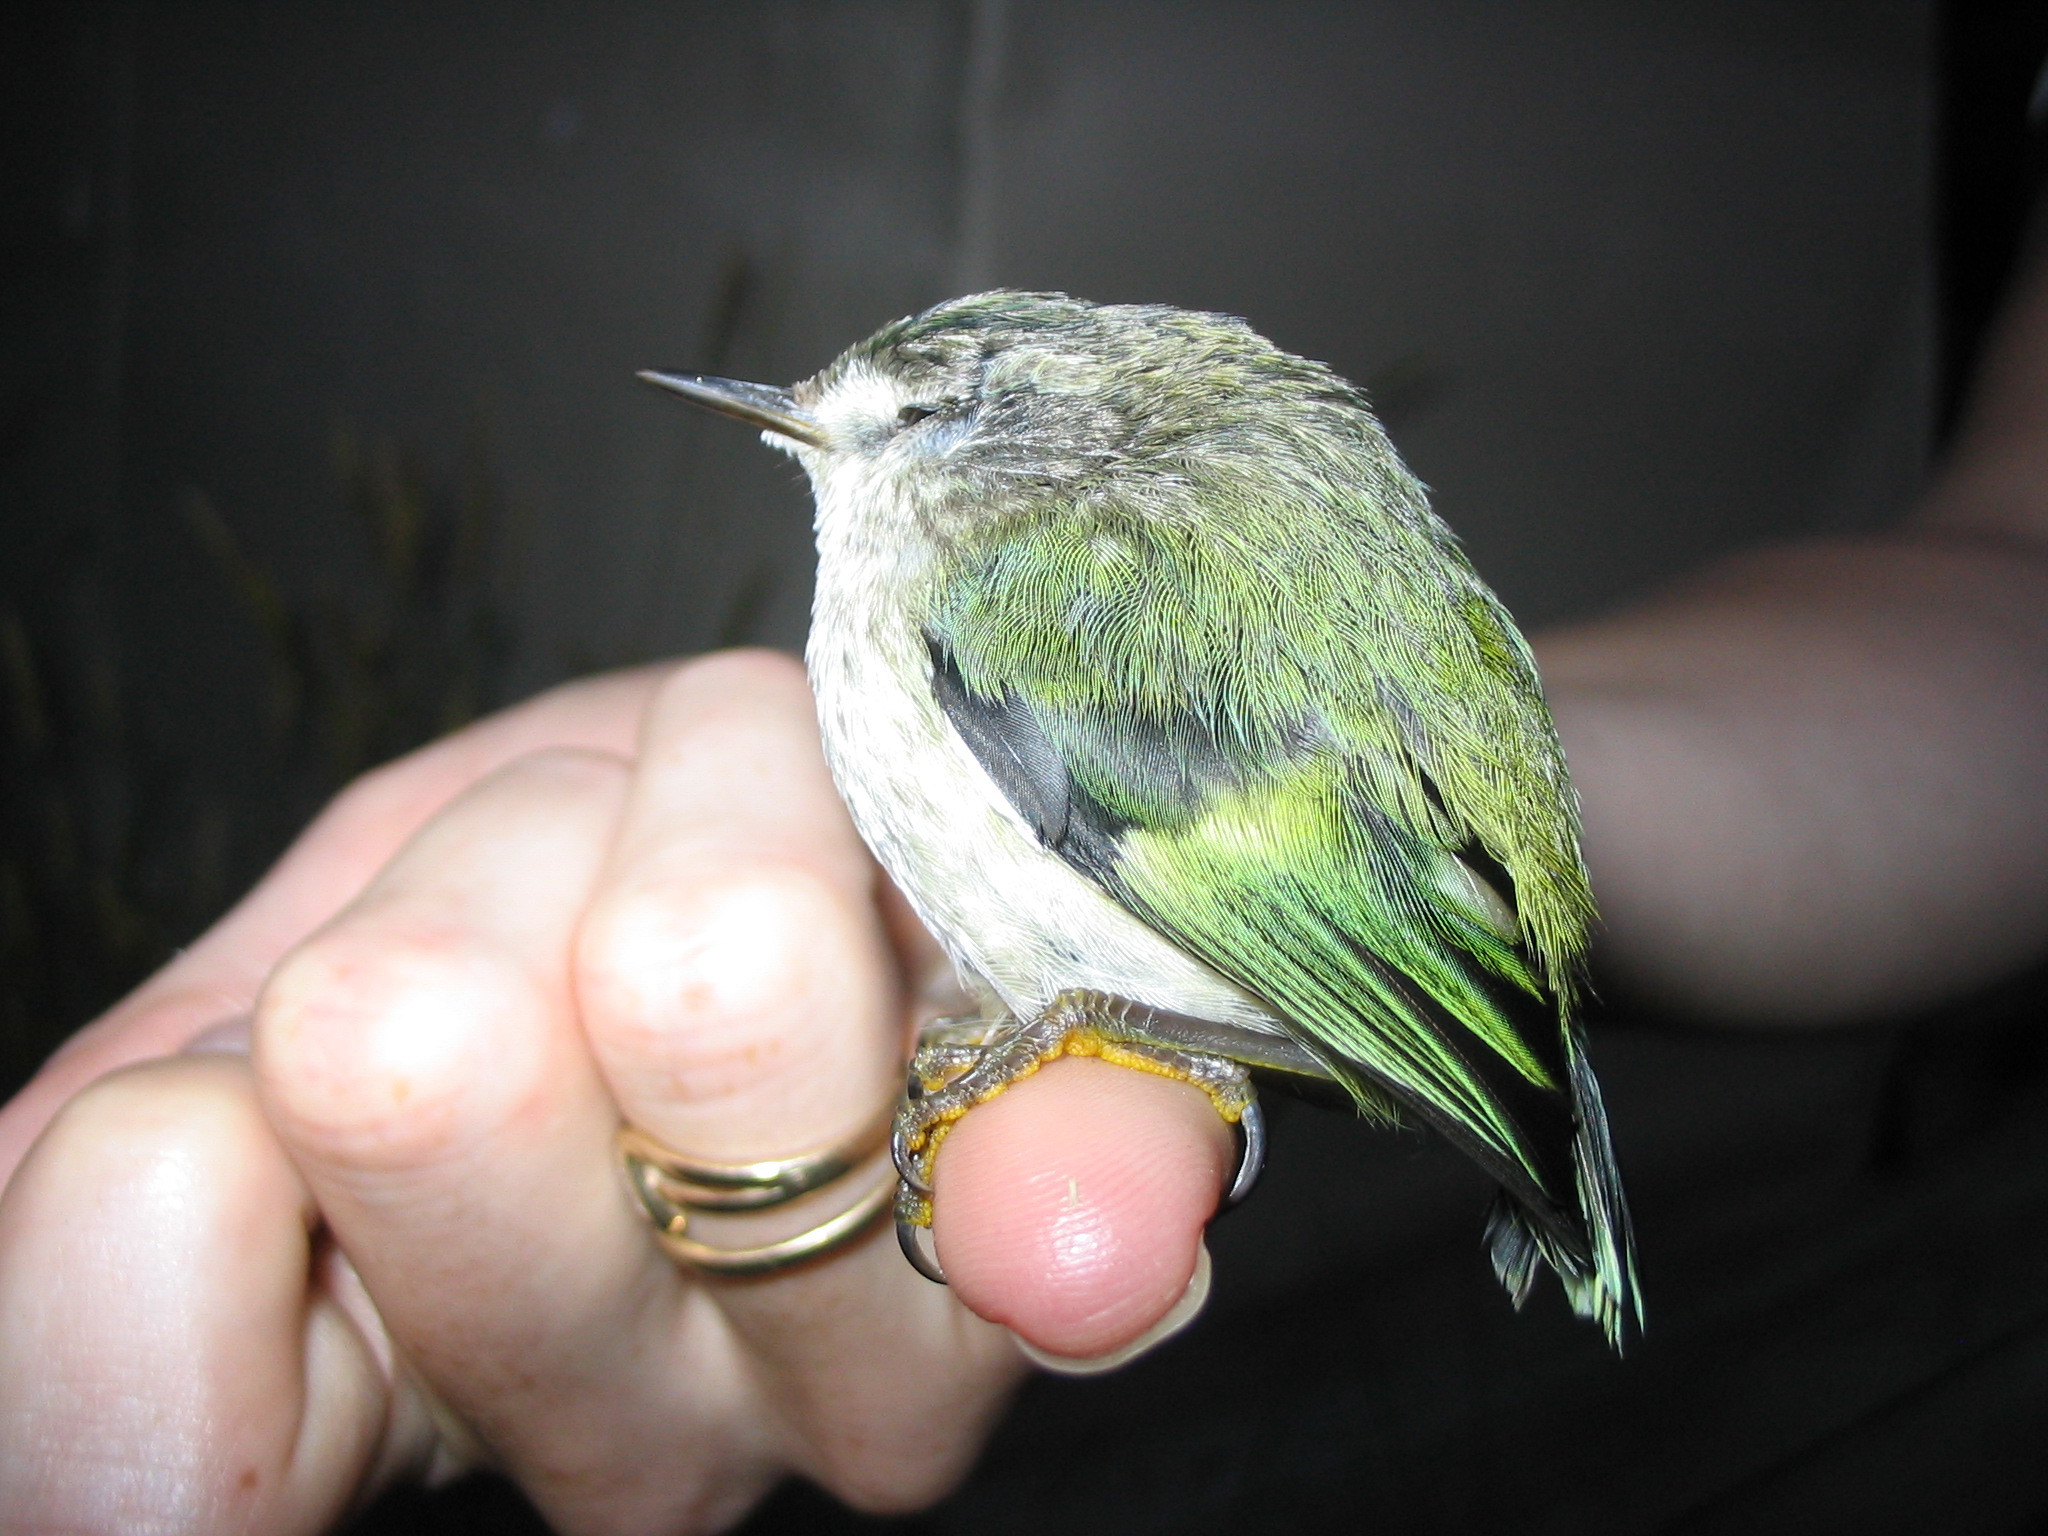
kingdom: Animalia
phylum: Chordata
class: Aves
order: Passeriformes
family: Acanthisittidae
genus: Acanthisitta
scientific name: Acanthisitta chloris
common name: Rifleman
